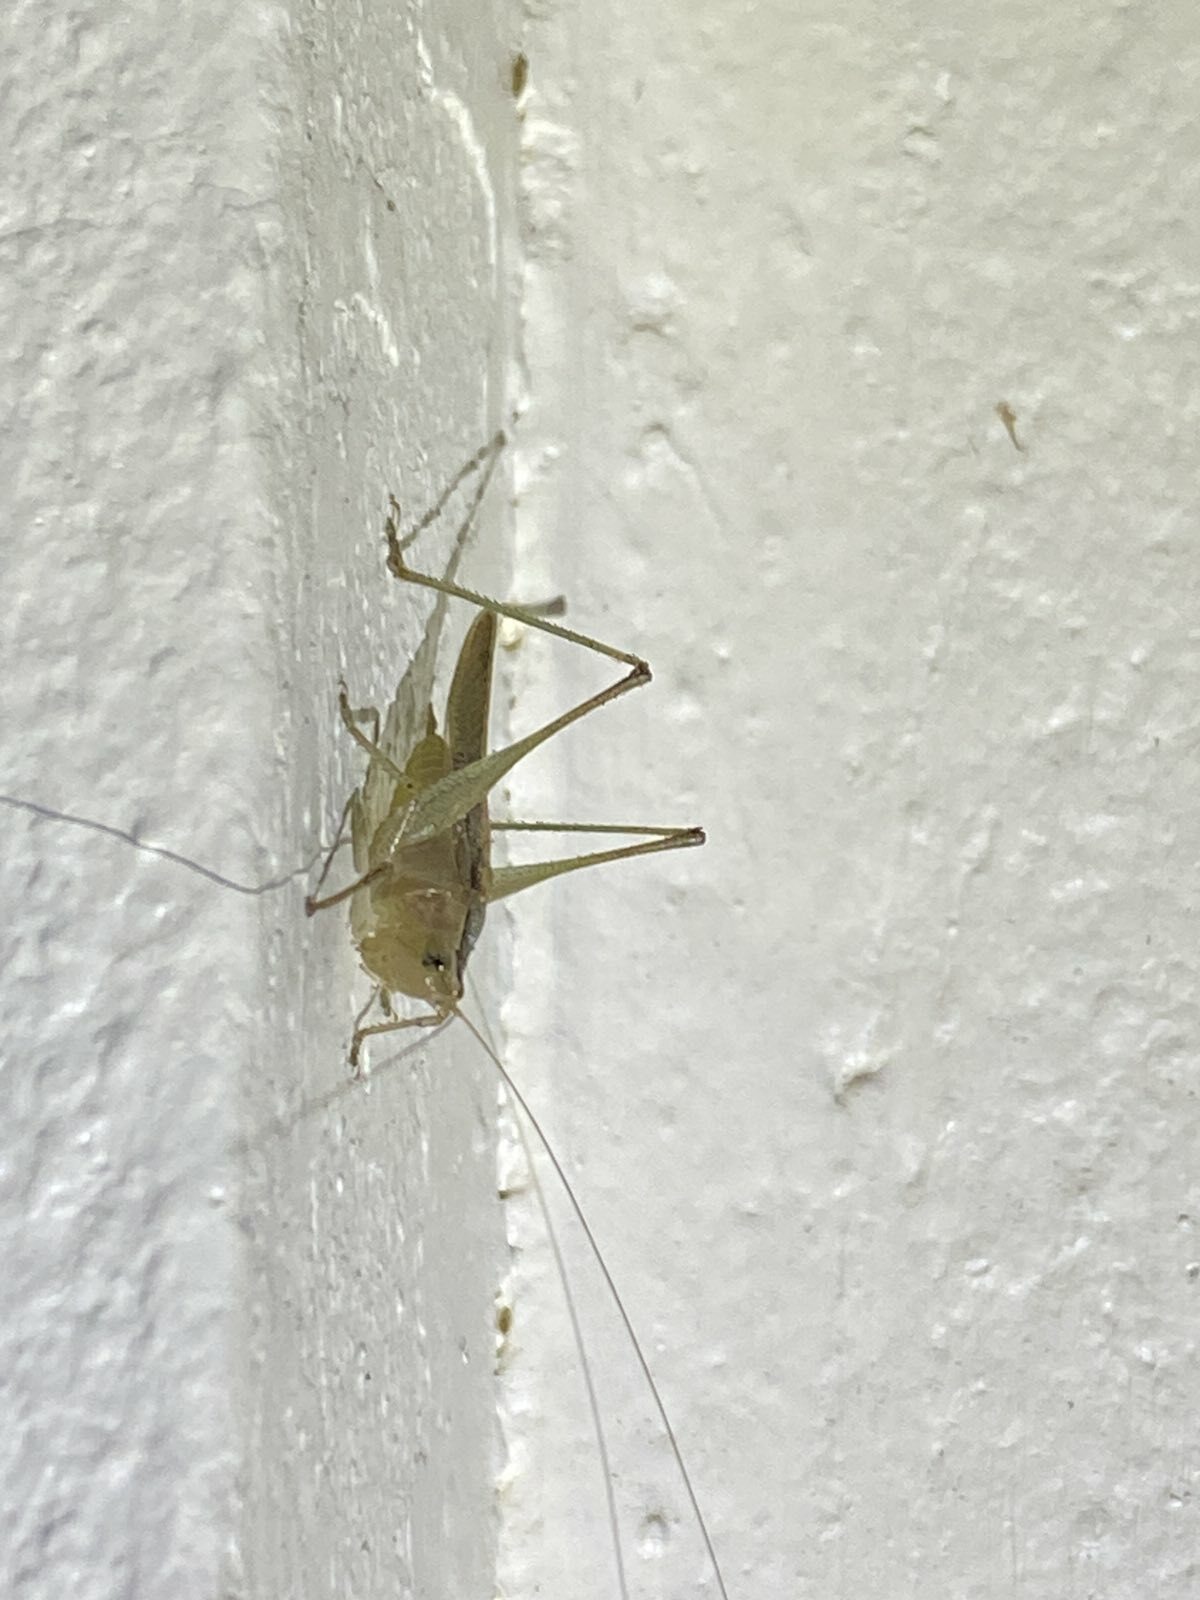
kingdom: Animalia
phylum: Arthropoda
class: Insecta
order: Orthoptera
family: Tettigoniidae
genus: Conocephalus
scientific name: Conocephalus maculatus
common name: Spotted meadow katydid
